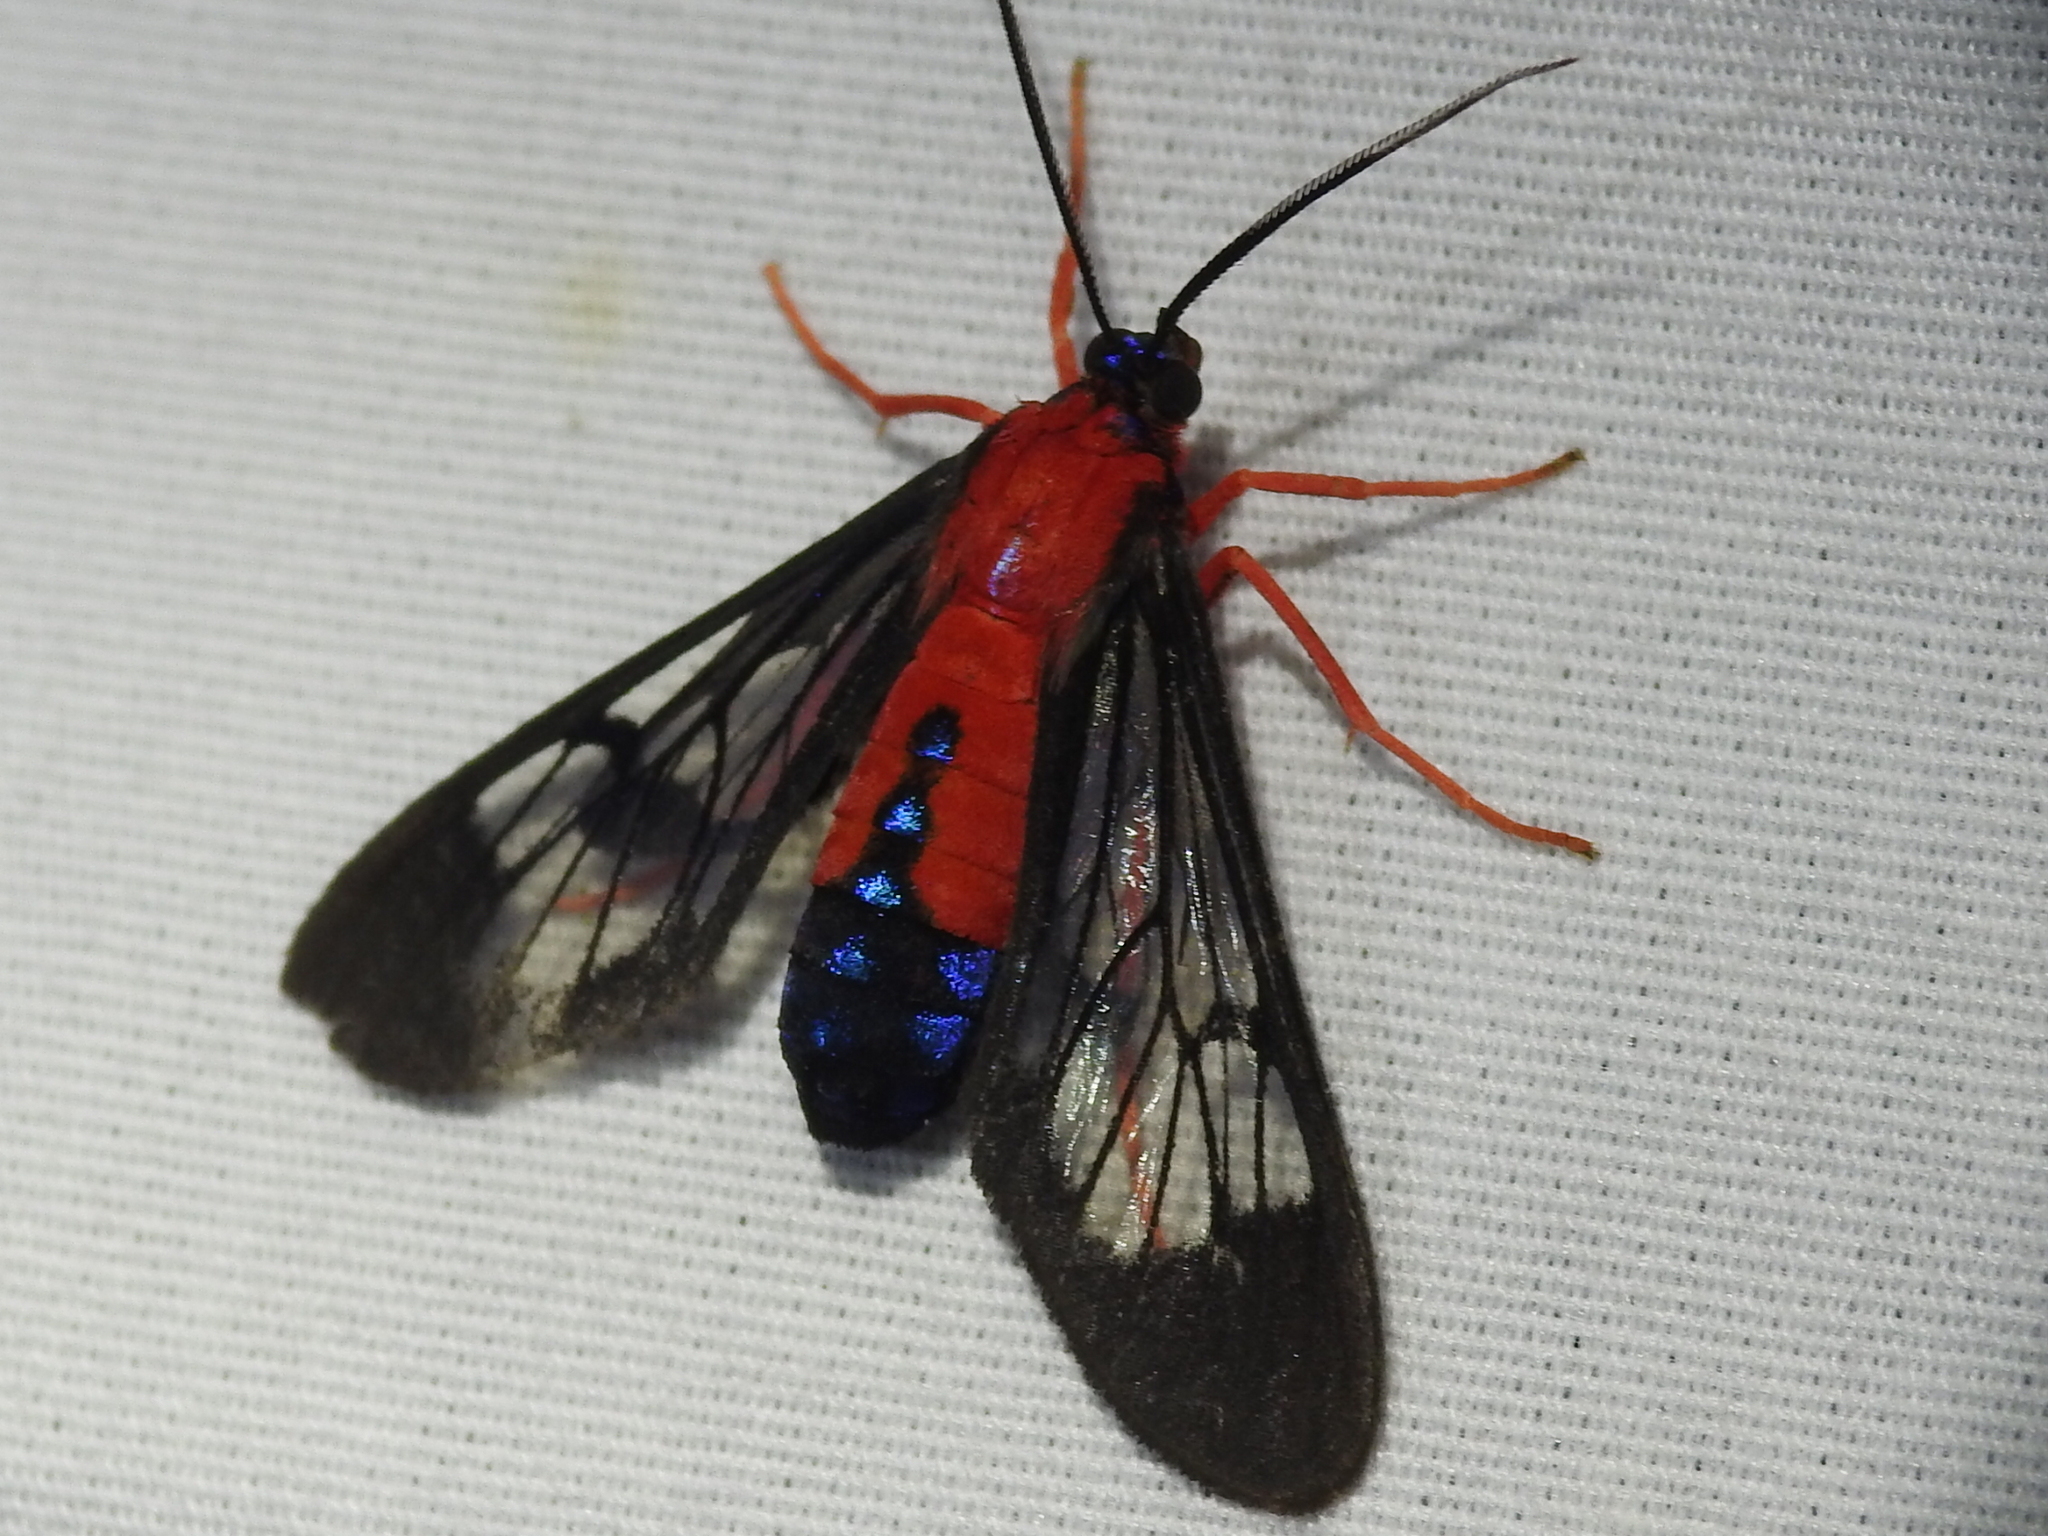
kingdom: Animalia
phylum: Arthropoda
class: Insecta
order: Lepidoptera
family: Erebidae
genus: Cosmosoma
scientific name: Cosmosoma myrodora
